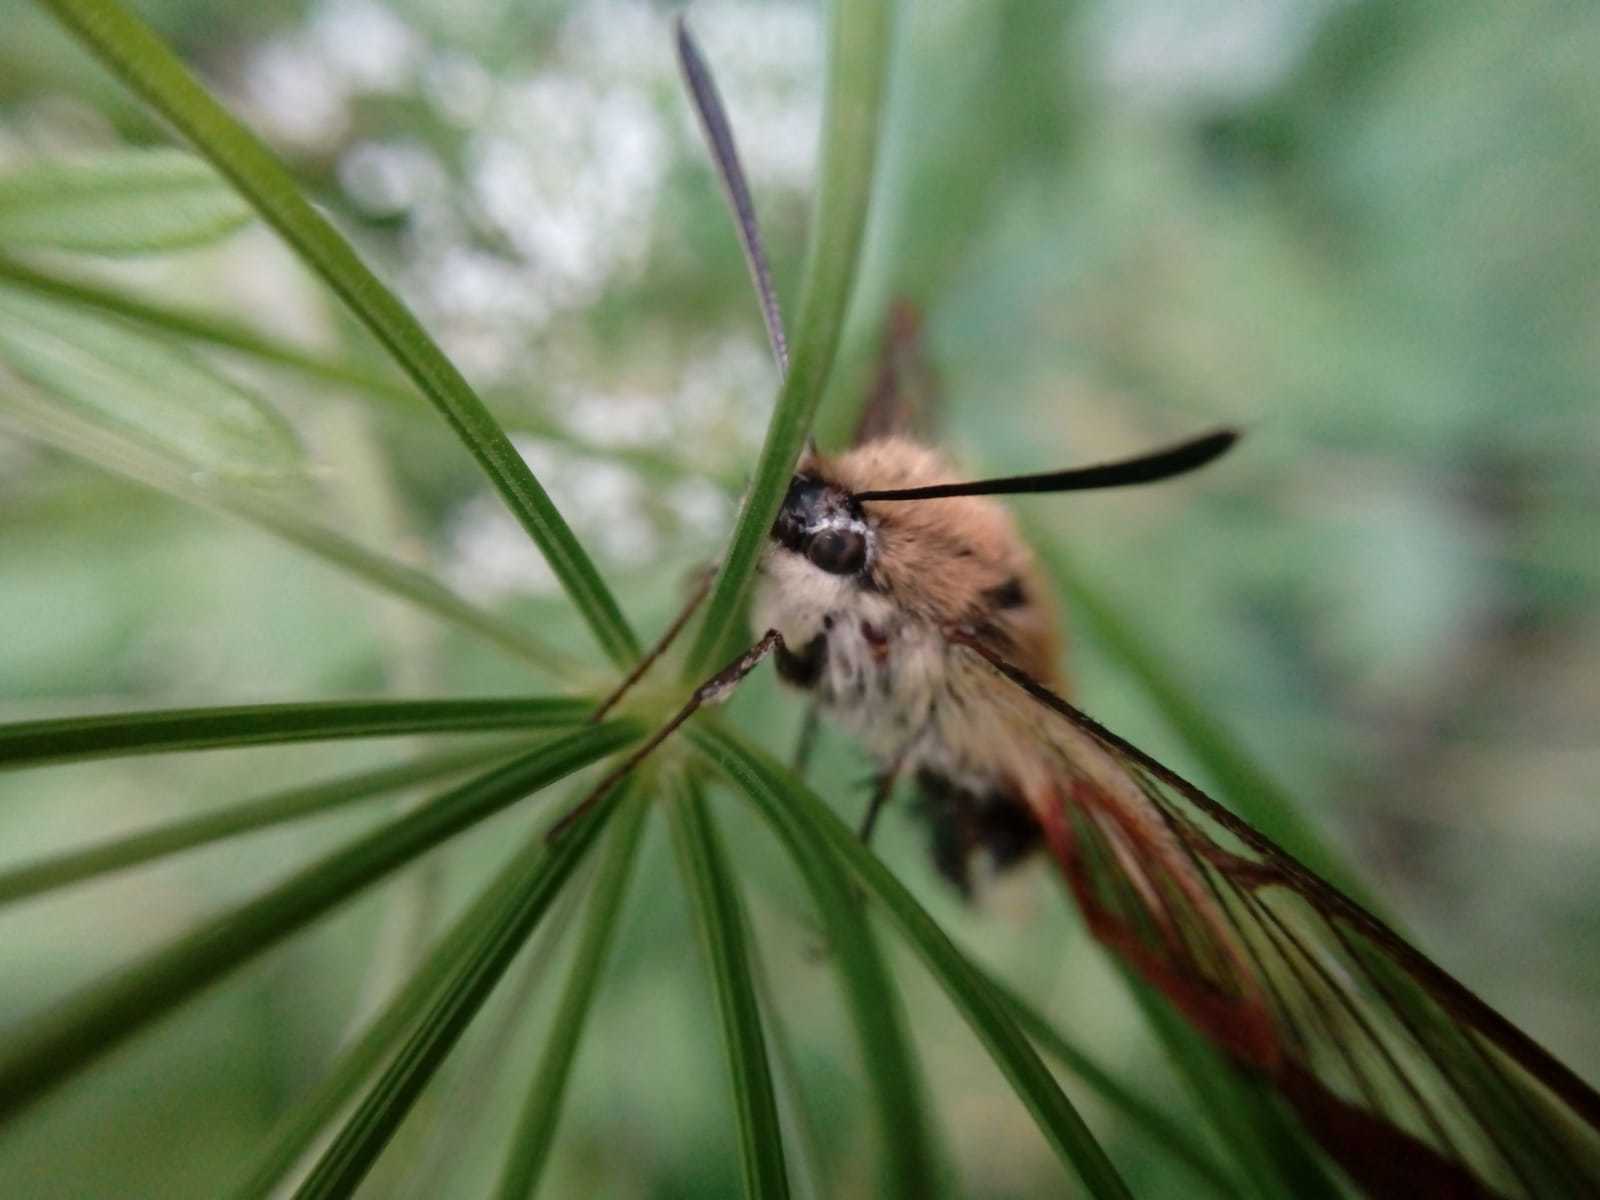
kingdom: Animalia
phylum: Arthropoda
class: Insecta
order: Lepidoptera
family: Sphingidae
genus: Hemaris
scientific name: Hemaris fuciformis
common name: Broad-bordered bee hawk-moth
